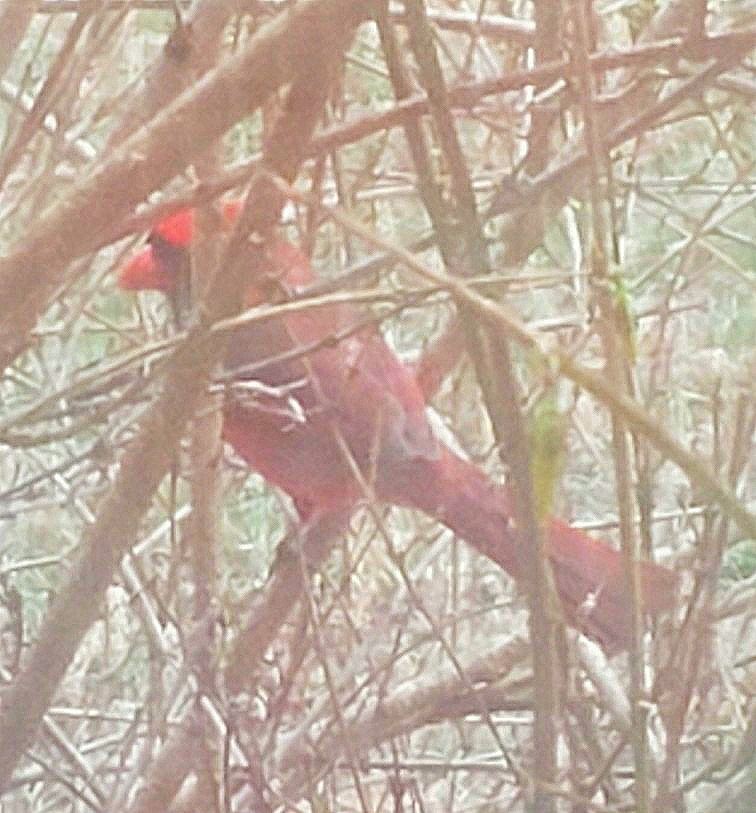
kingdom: Animalia
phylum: Chordata
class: Aves
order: Passeriformes
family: Cardinalidae
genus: Cardinalis
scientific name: Cardinalis cardinalis
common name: Northern cardinal
